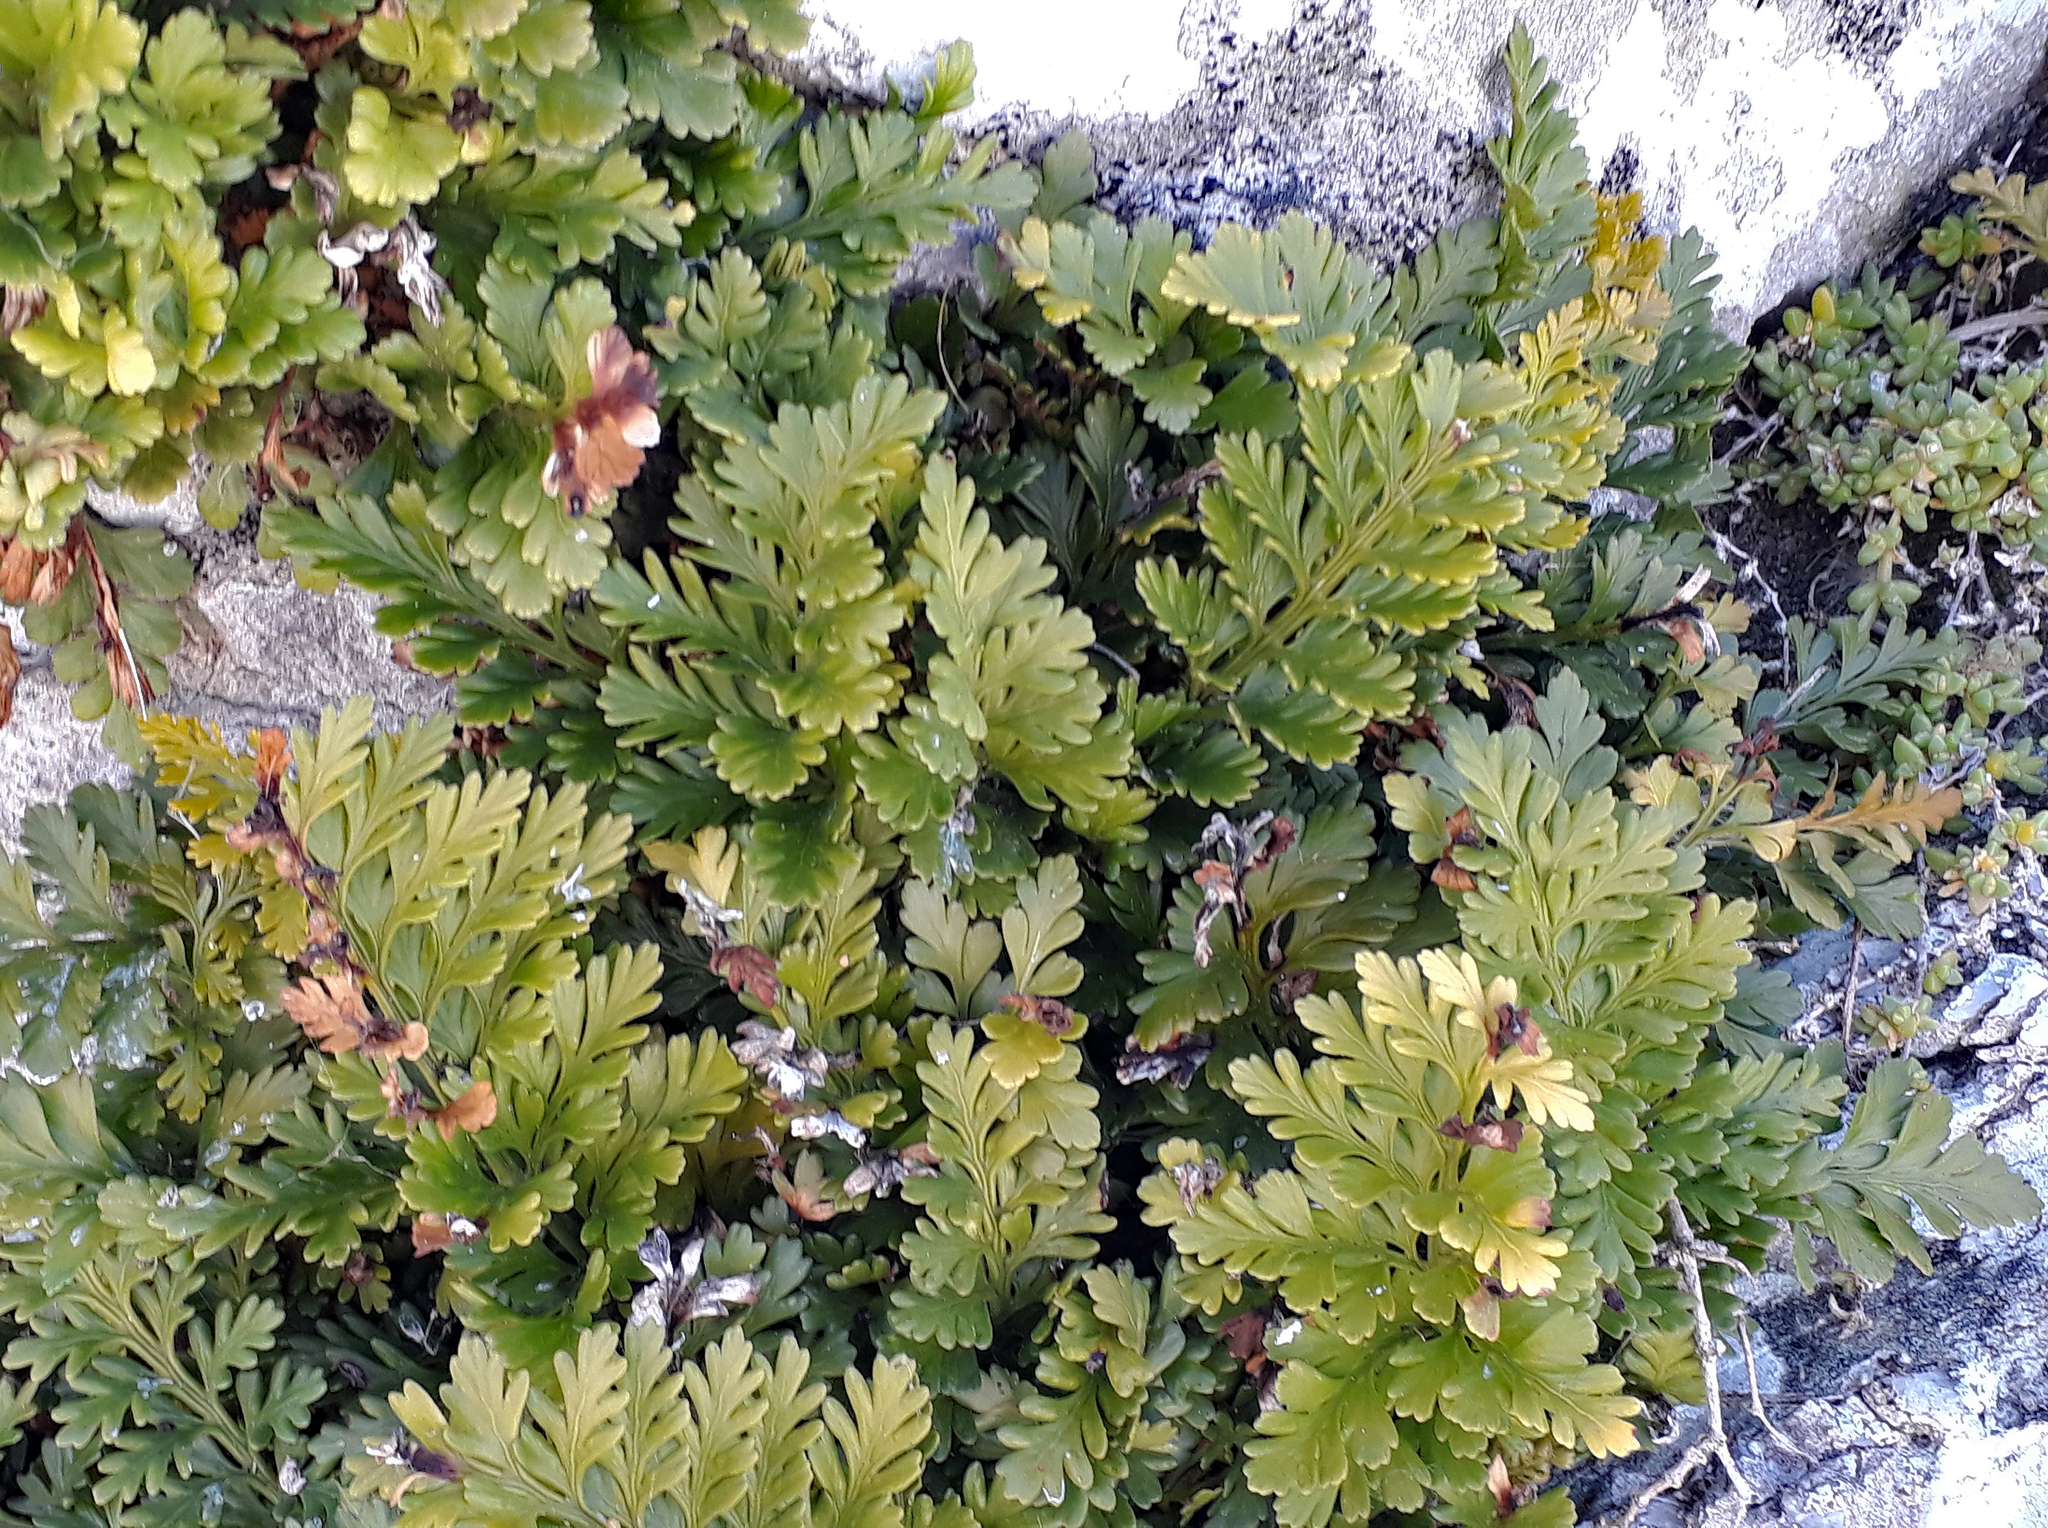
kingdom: Plantae
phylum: Tracheophyta
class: Polypodiopsida
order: Polypodiales
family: Aspleniaceae
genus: Asplenium
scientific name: Asplenium chathamense
